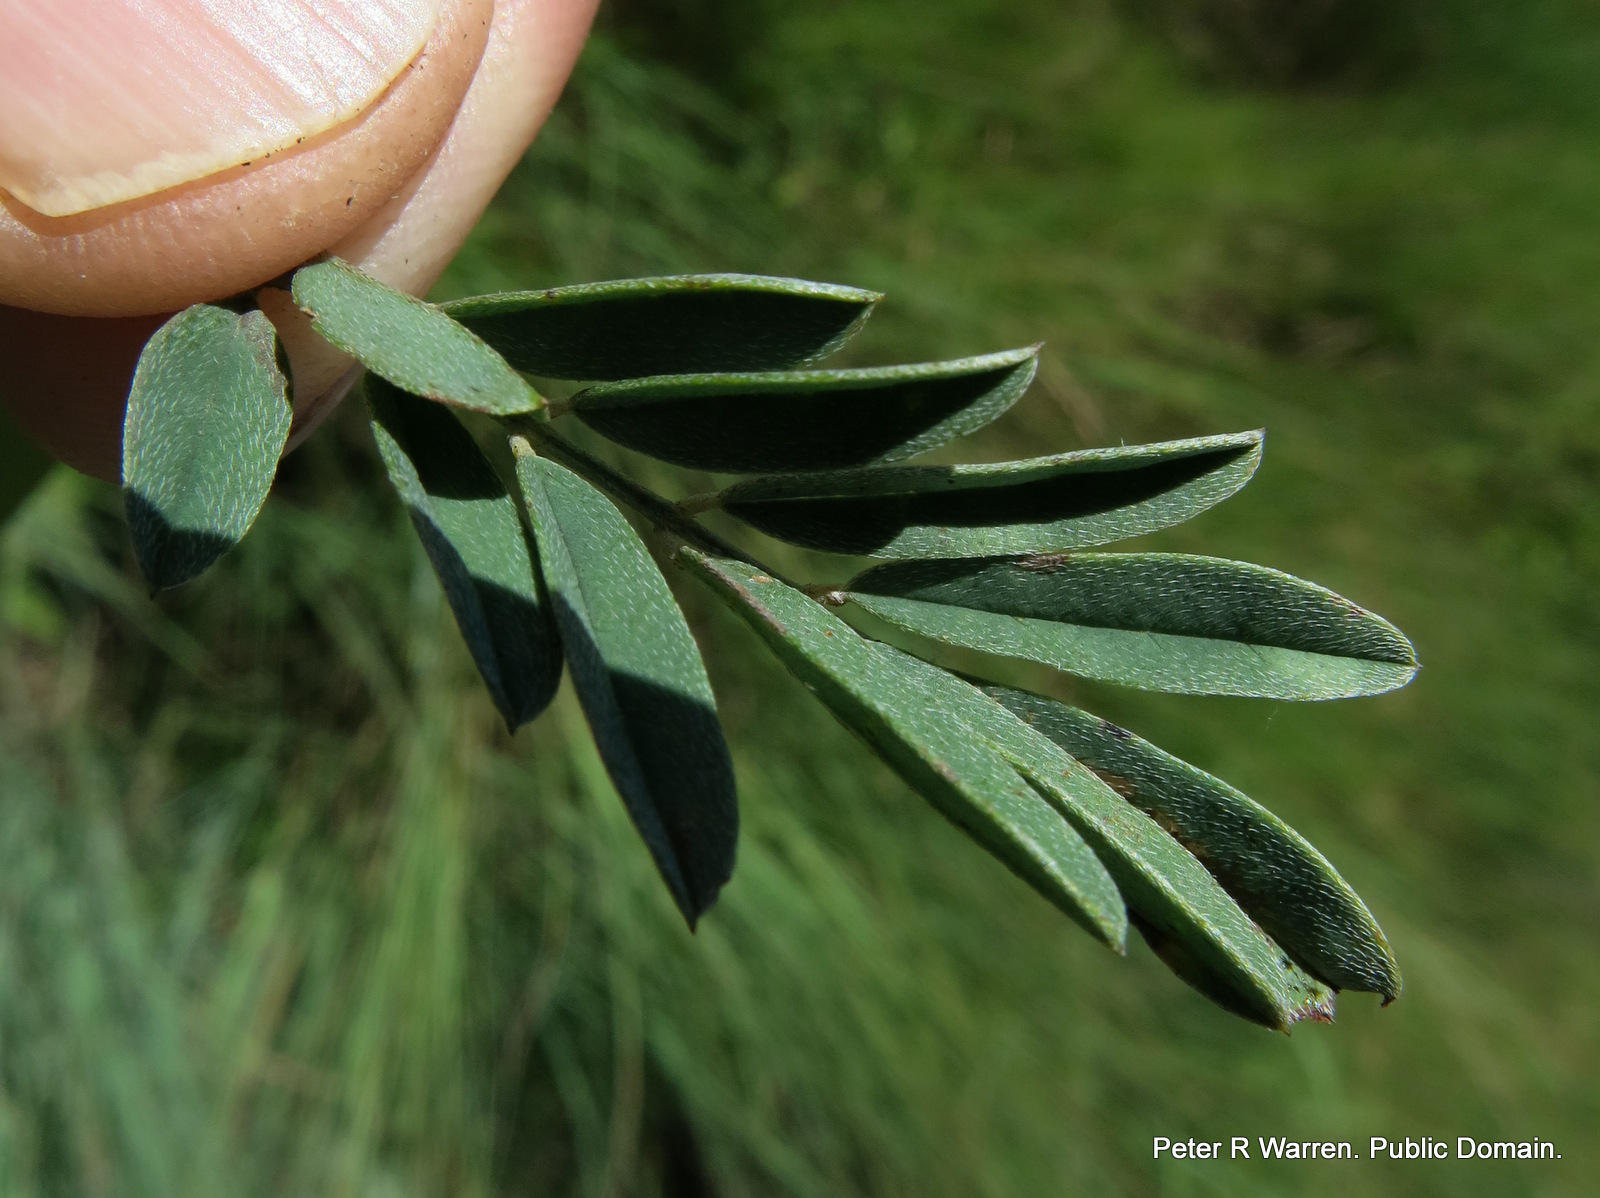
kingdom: Plantae
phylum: Tracheophyta
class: Magnoliopsida
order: Fabales
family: Fabaceae
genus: Indigofera
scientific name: Indigofera dregeana
